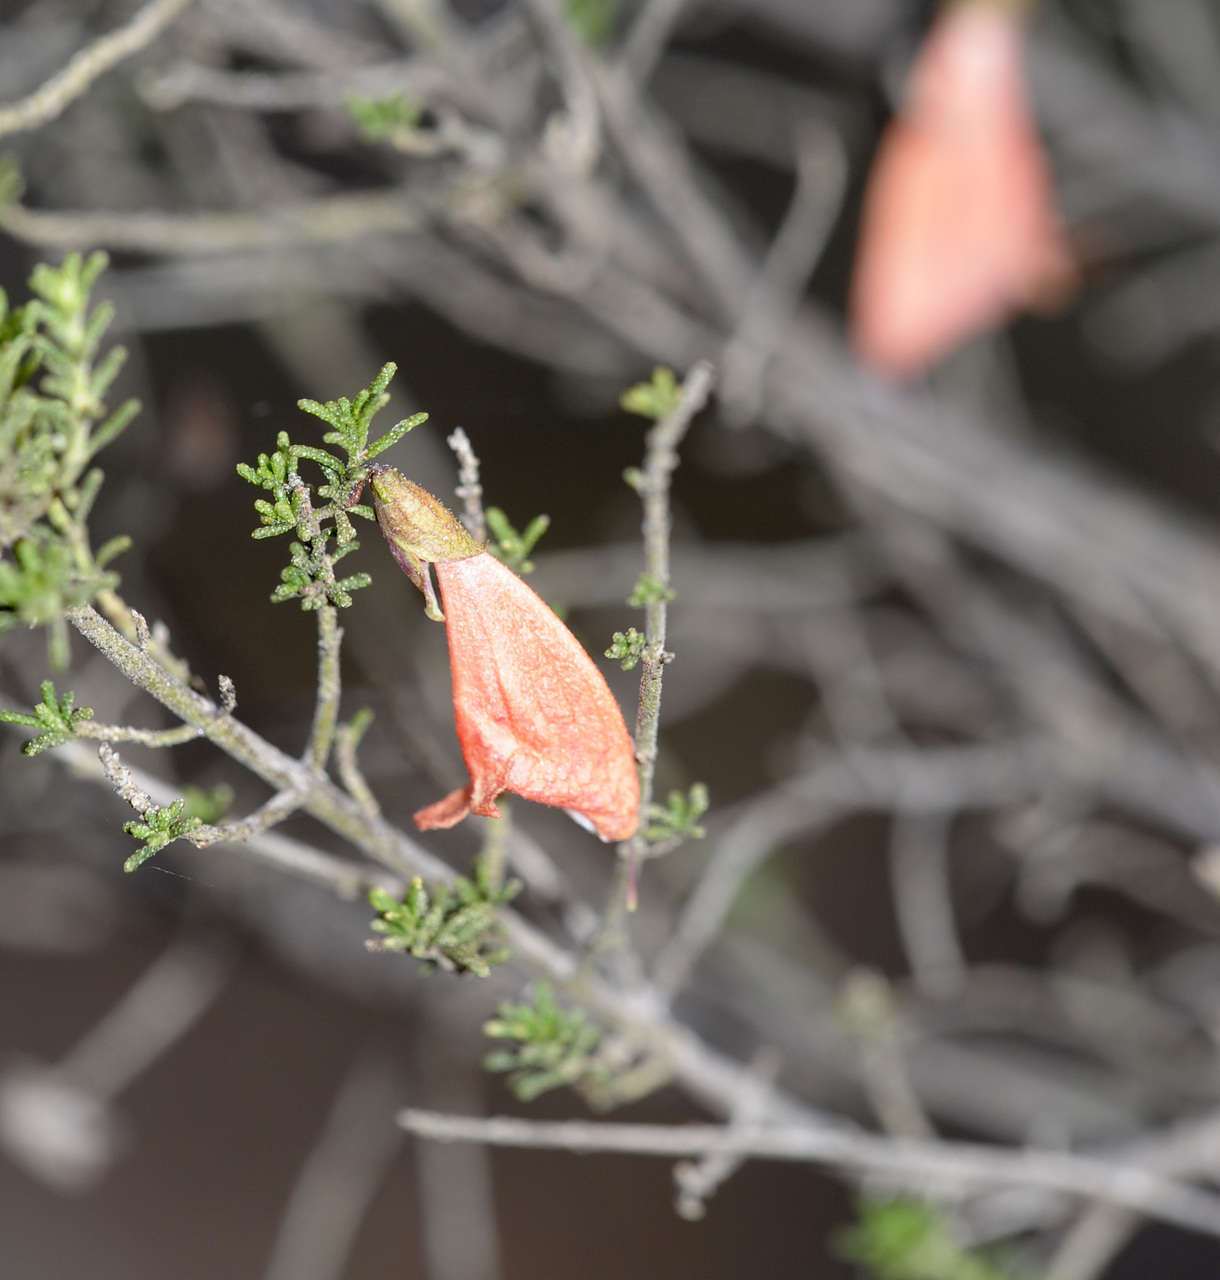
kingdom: Plantae
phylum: Tracheophyta
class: Magnoliopsida
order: Lamiales
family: Lamiaceae
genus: Prostanthera
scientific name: Prostanthera aspalathoides
